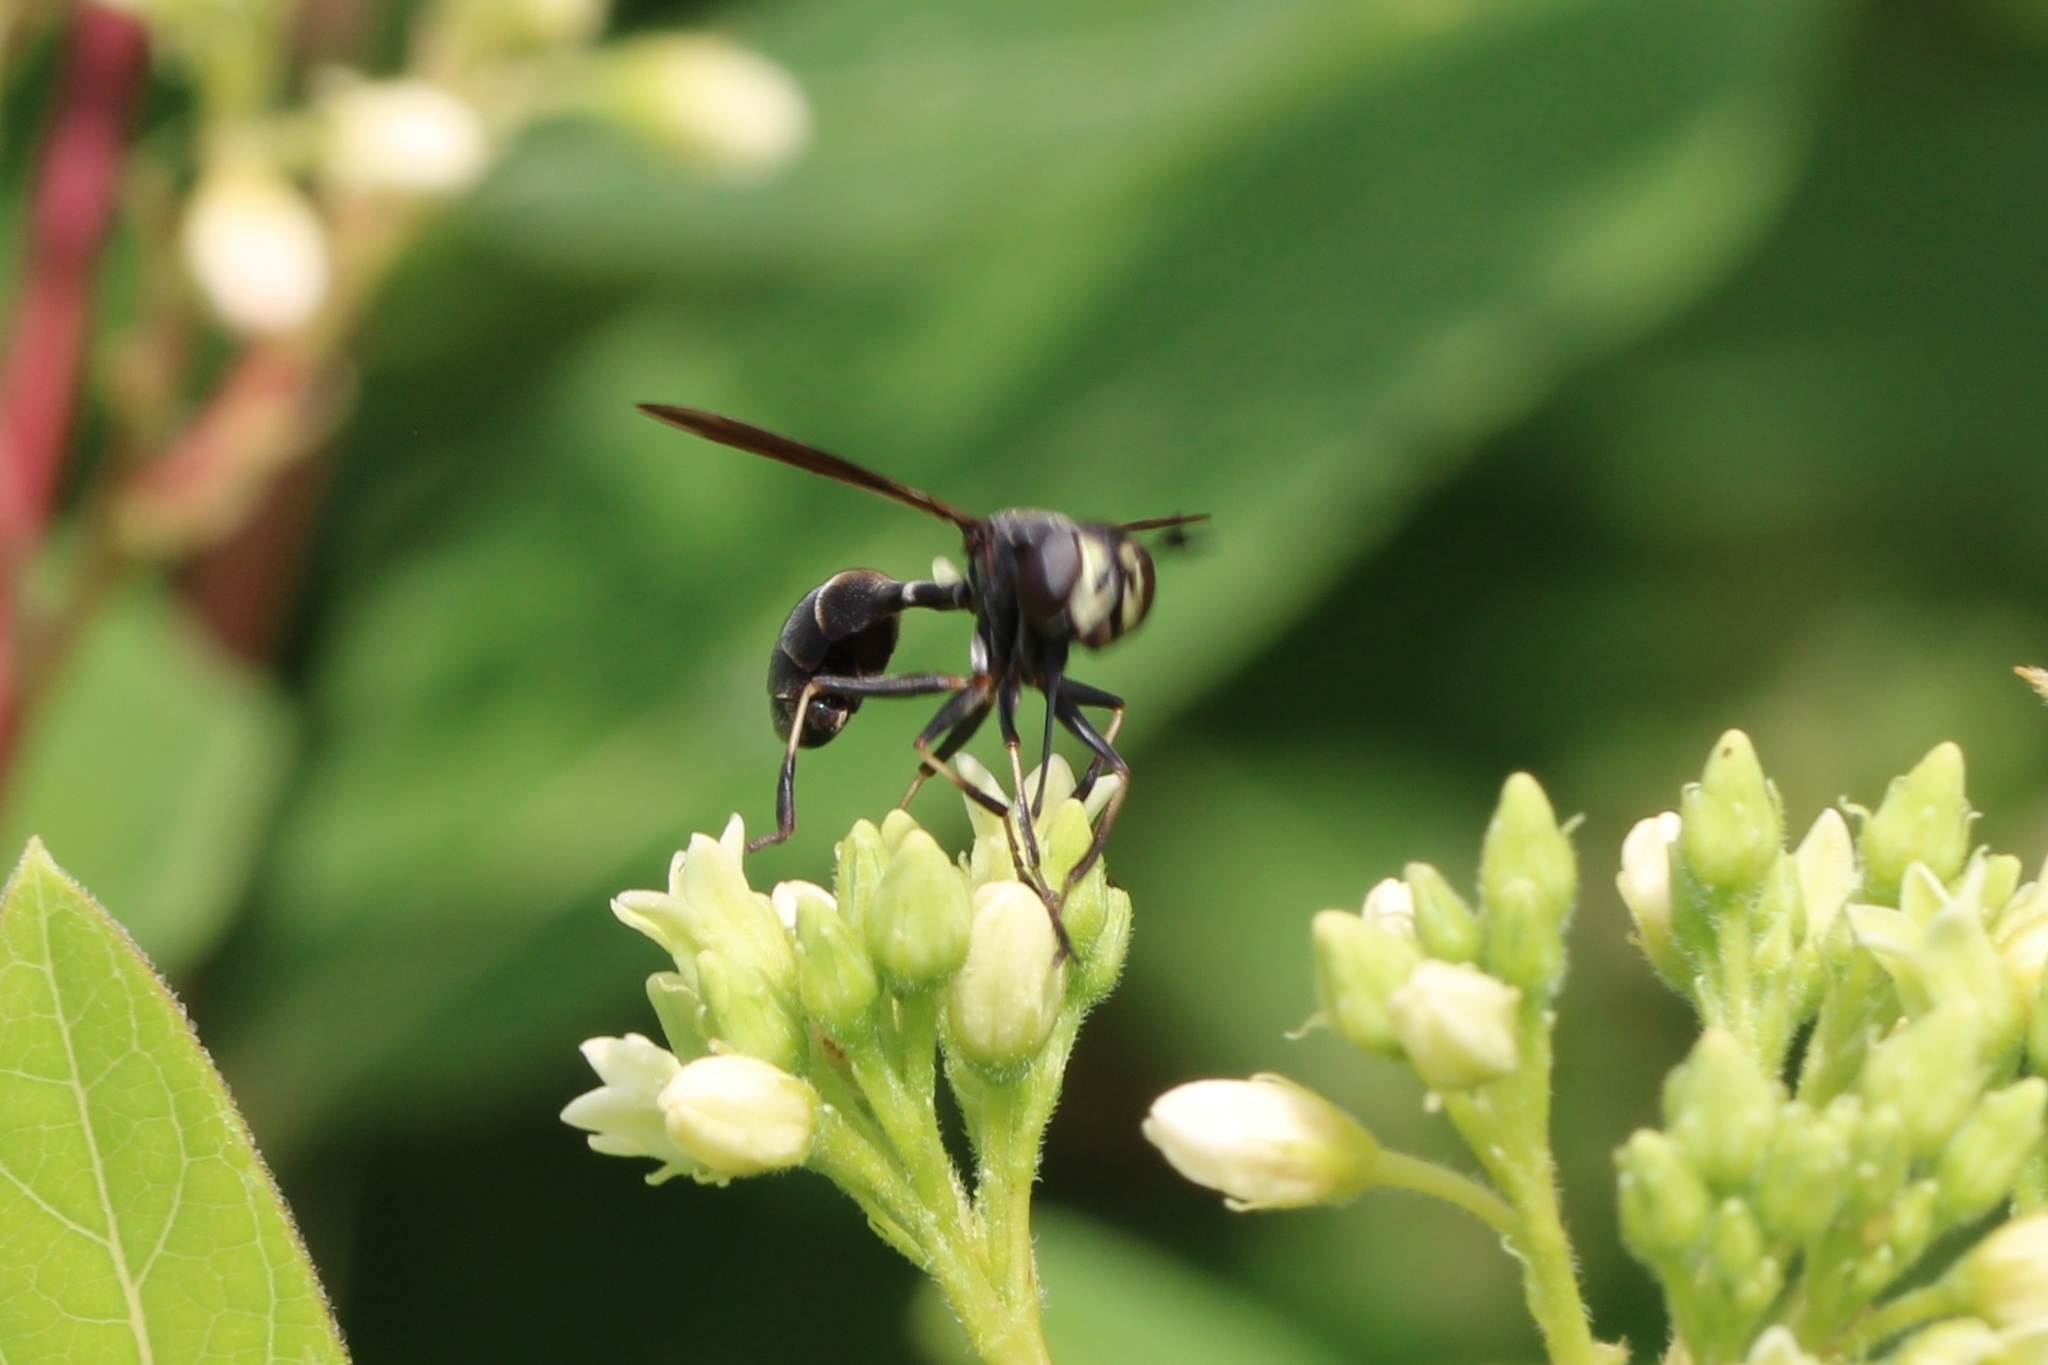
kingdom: Animalia
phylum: Arthropoda
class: Insecta
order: Diptera
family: Conopidae
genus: Physocephala
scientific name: Physocephala tibialis
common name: Common eastern physocephala
